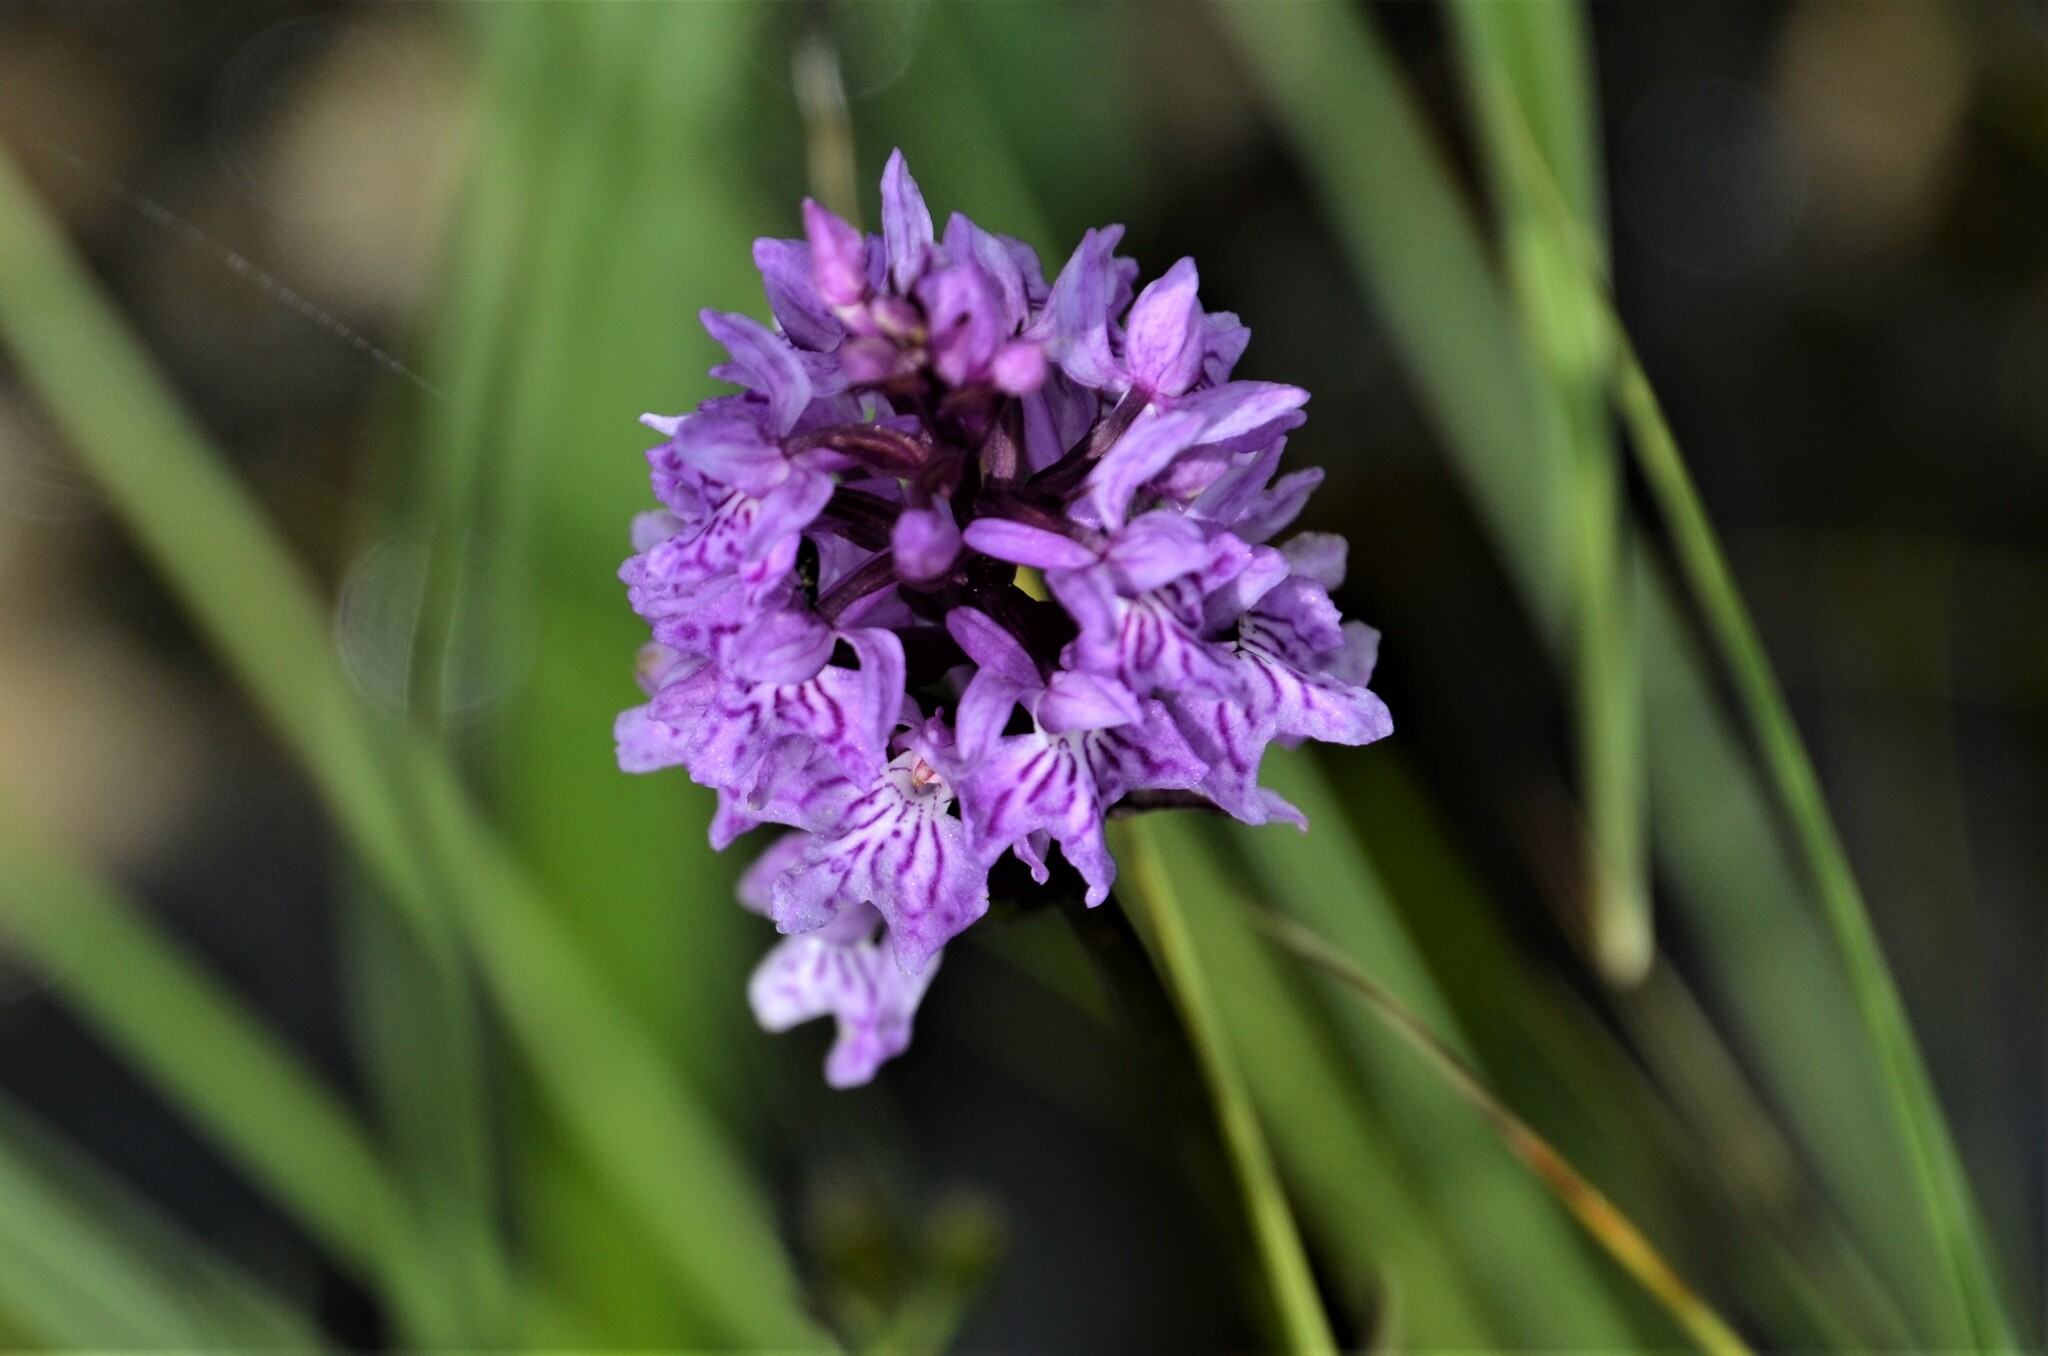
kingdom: Plantae
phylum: Tracheophyta
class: Liliopsida
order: Asparagales
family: Orchidaceae
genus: Dactylorhiza
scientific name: Dactylorhiza maculata
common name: Heath spotted-orchid
